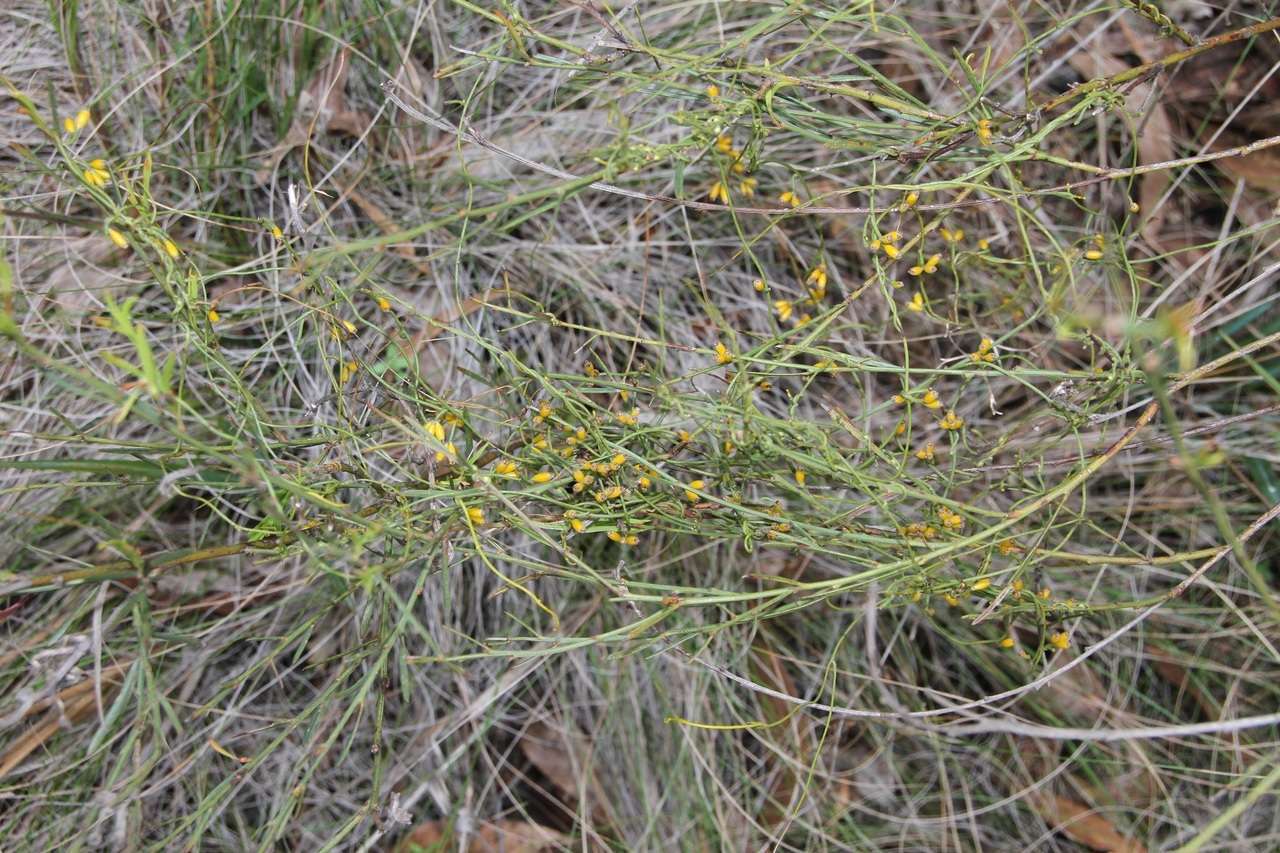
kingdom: Plantae
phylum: Tracheophyta
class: Magnoliopsida
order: Laurales
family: Lauraceae
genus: Cassytha
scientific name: Cassytha glabella
